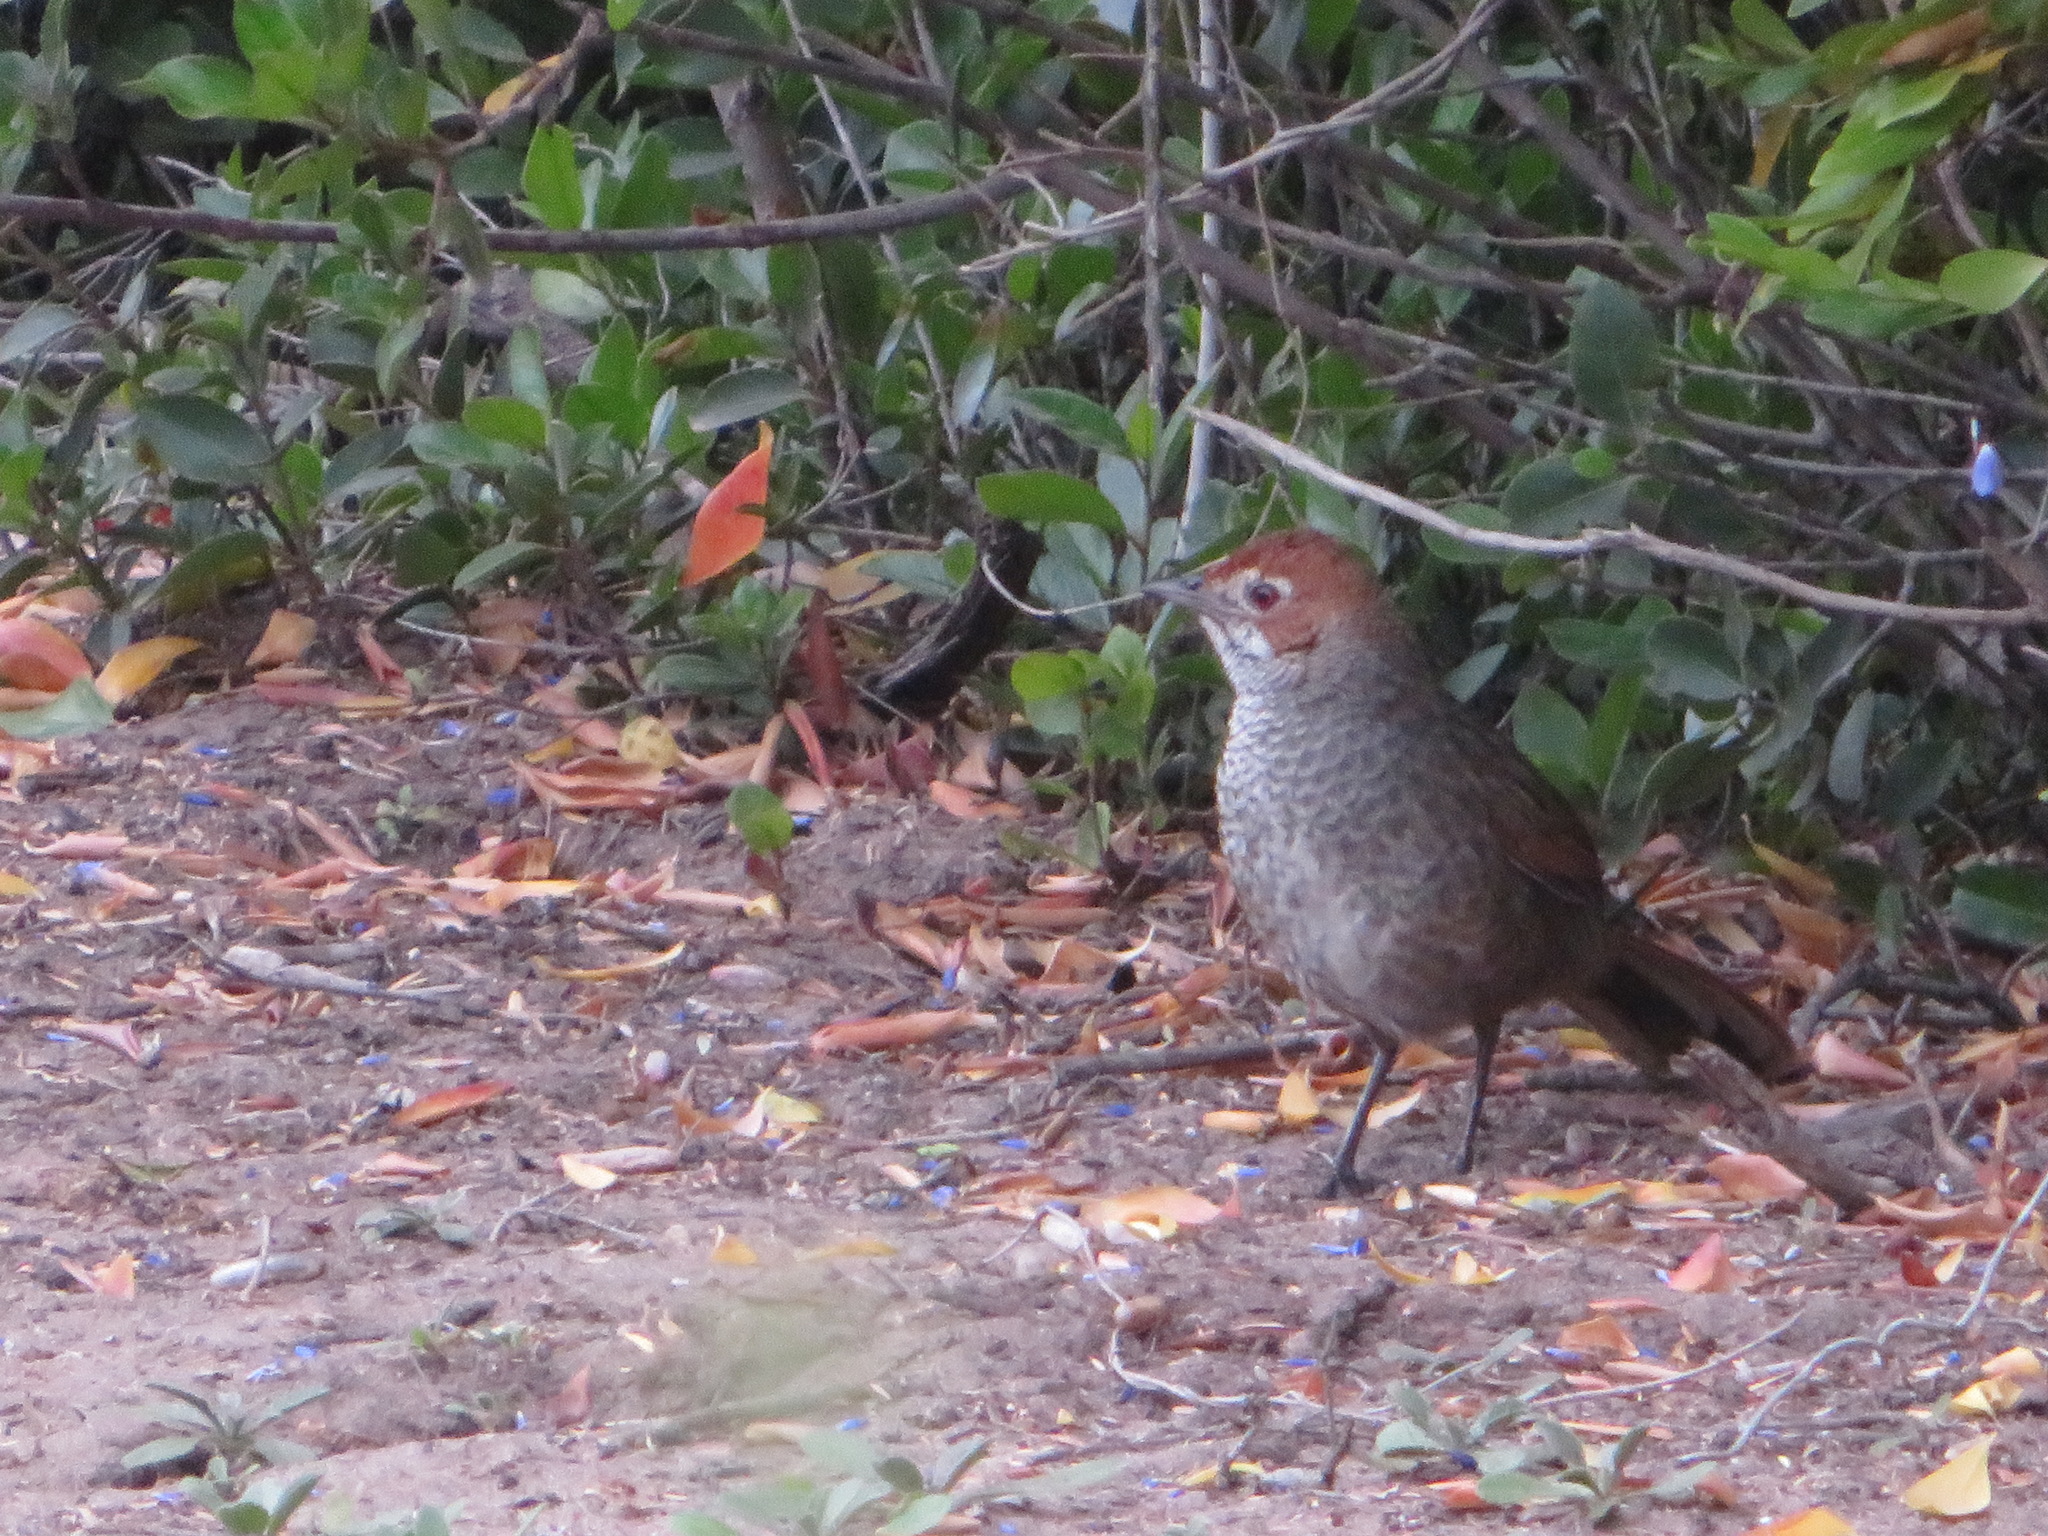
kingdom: Animalia
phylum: Chordata
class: Aves
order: Passeriformes
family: Dasyornithidae
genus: Dasyornis
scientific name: Dasyornis broadbenti
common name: Rufous bristlebird
